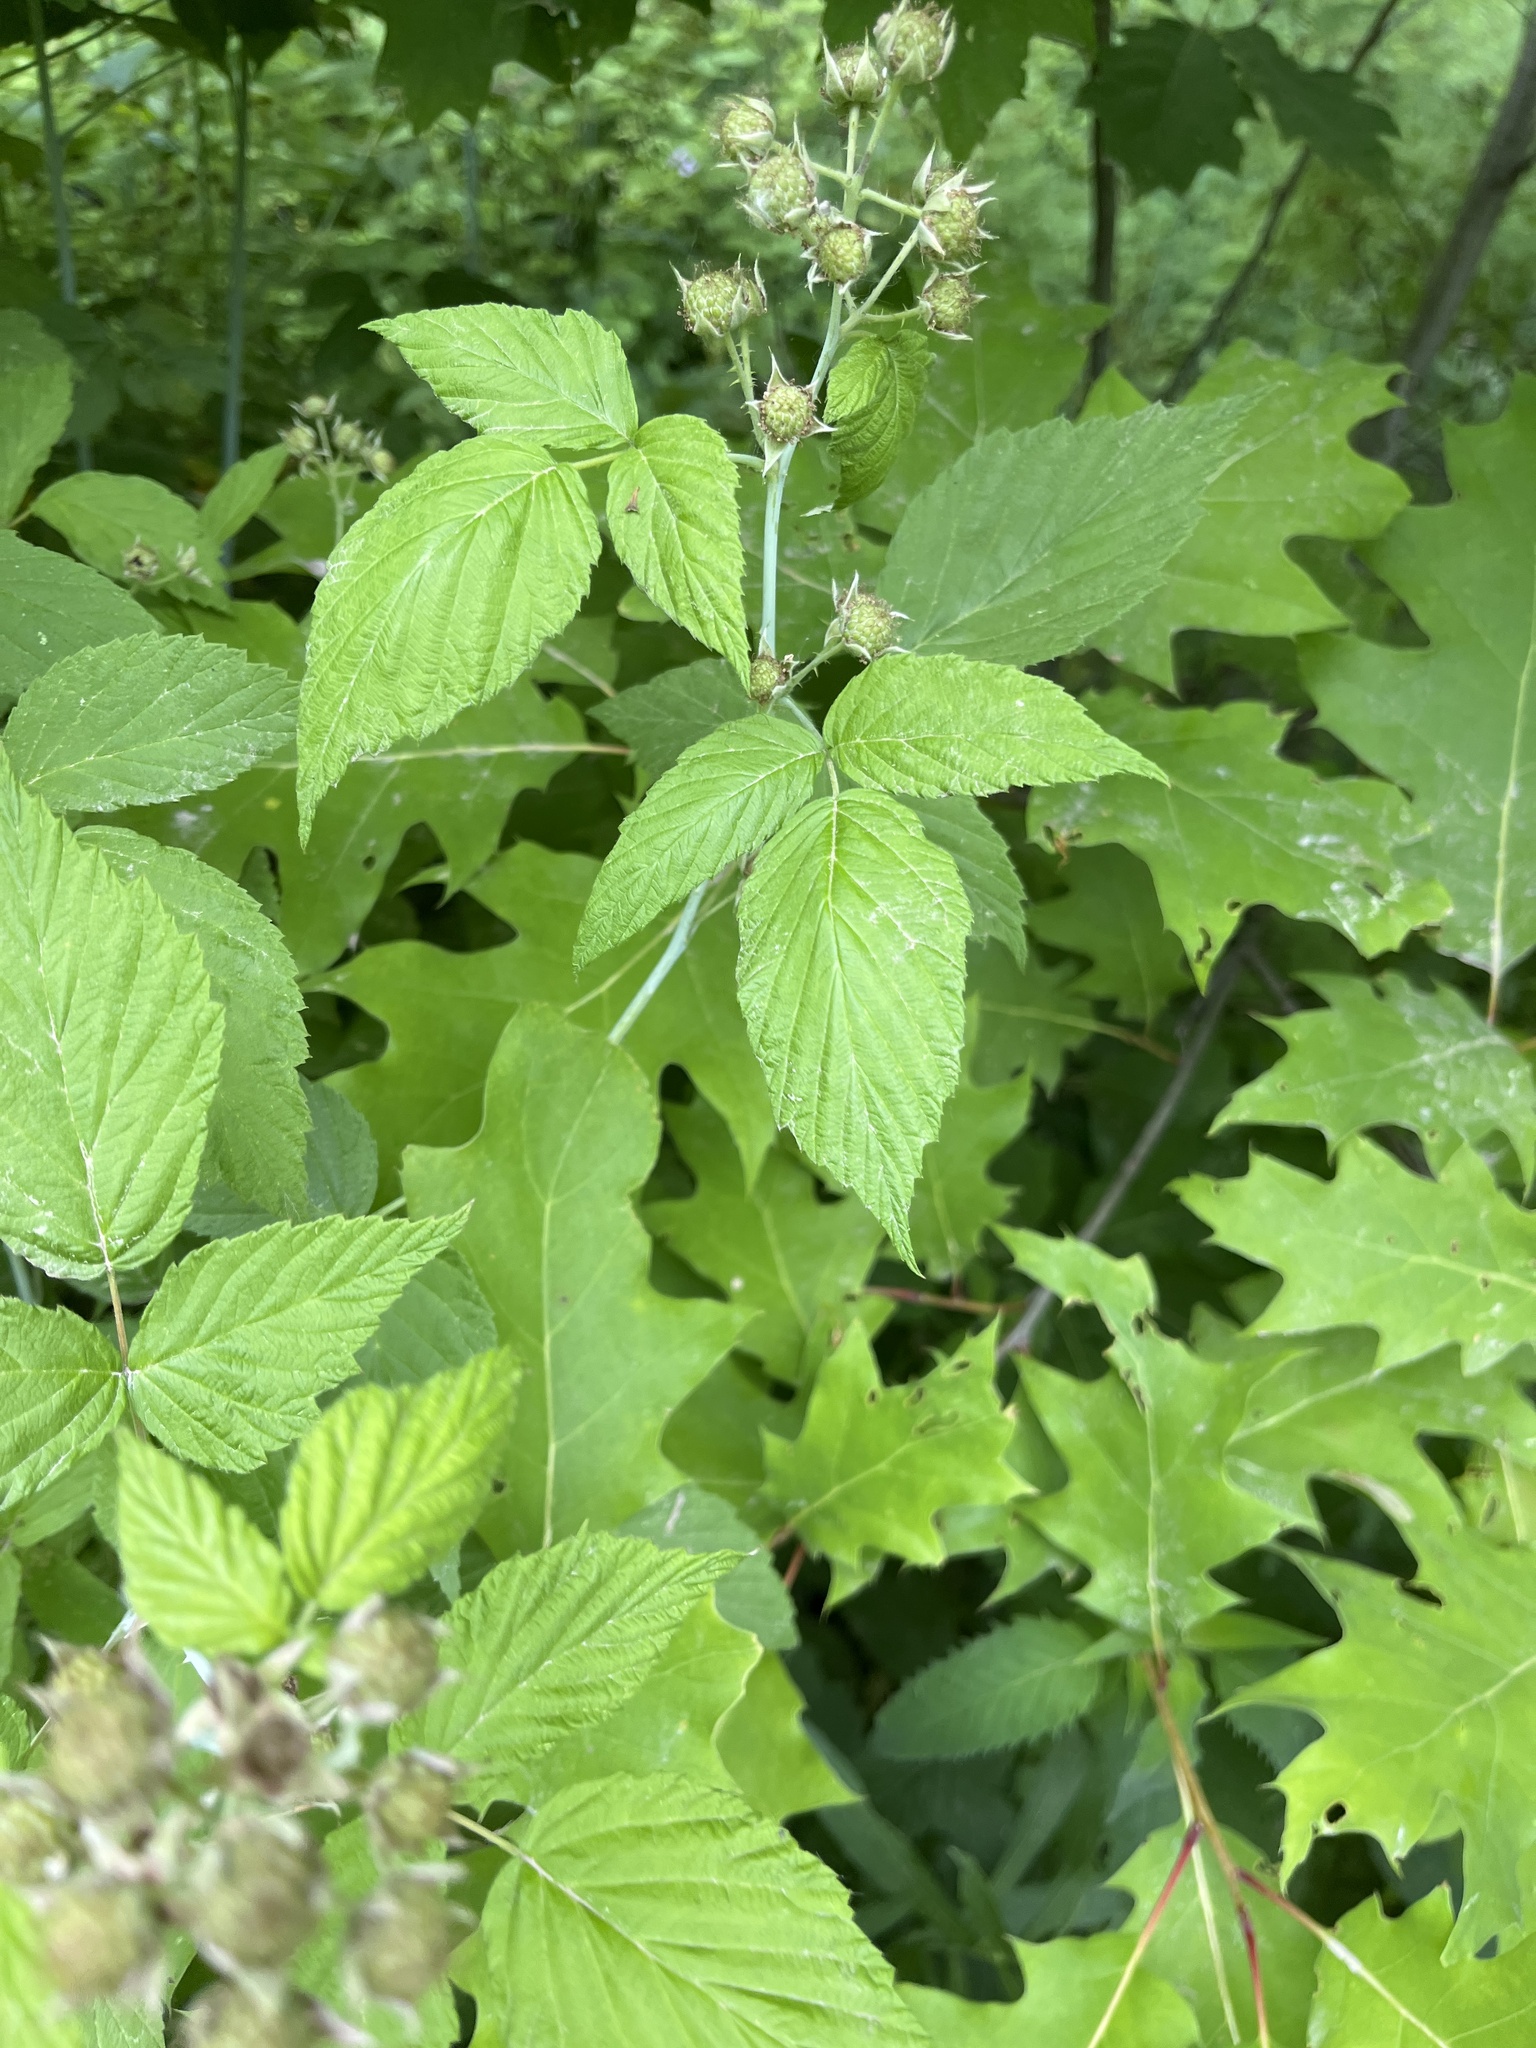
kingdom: Plantae
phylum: Tracheophyta
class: Magnoliopsida
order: Rosales
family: Rosaceae
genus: Rubus
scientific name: Rubus occidentalis
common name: Black raspberry
